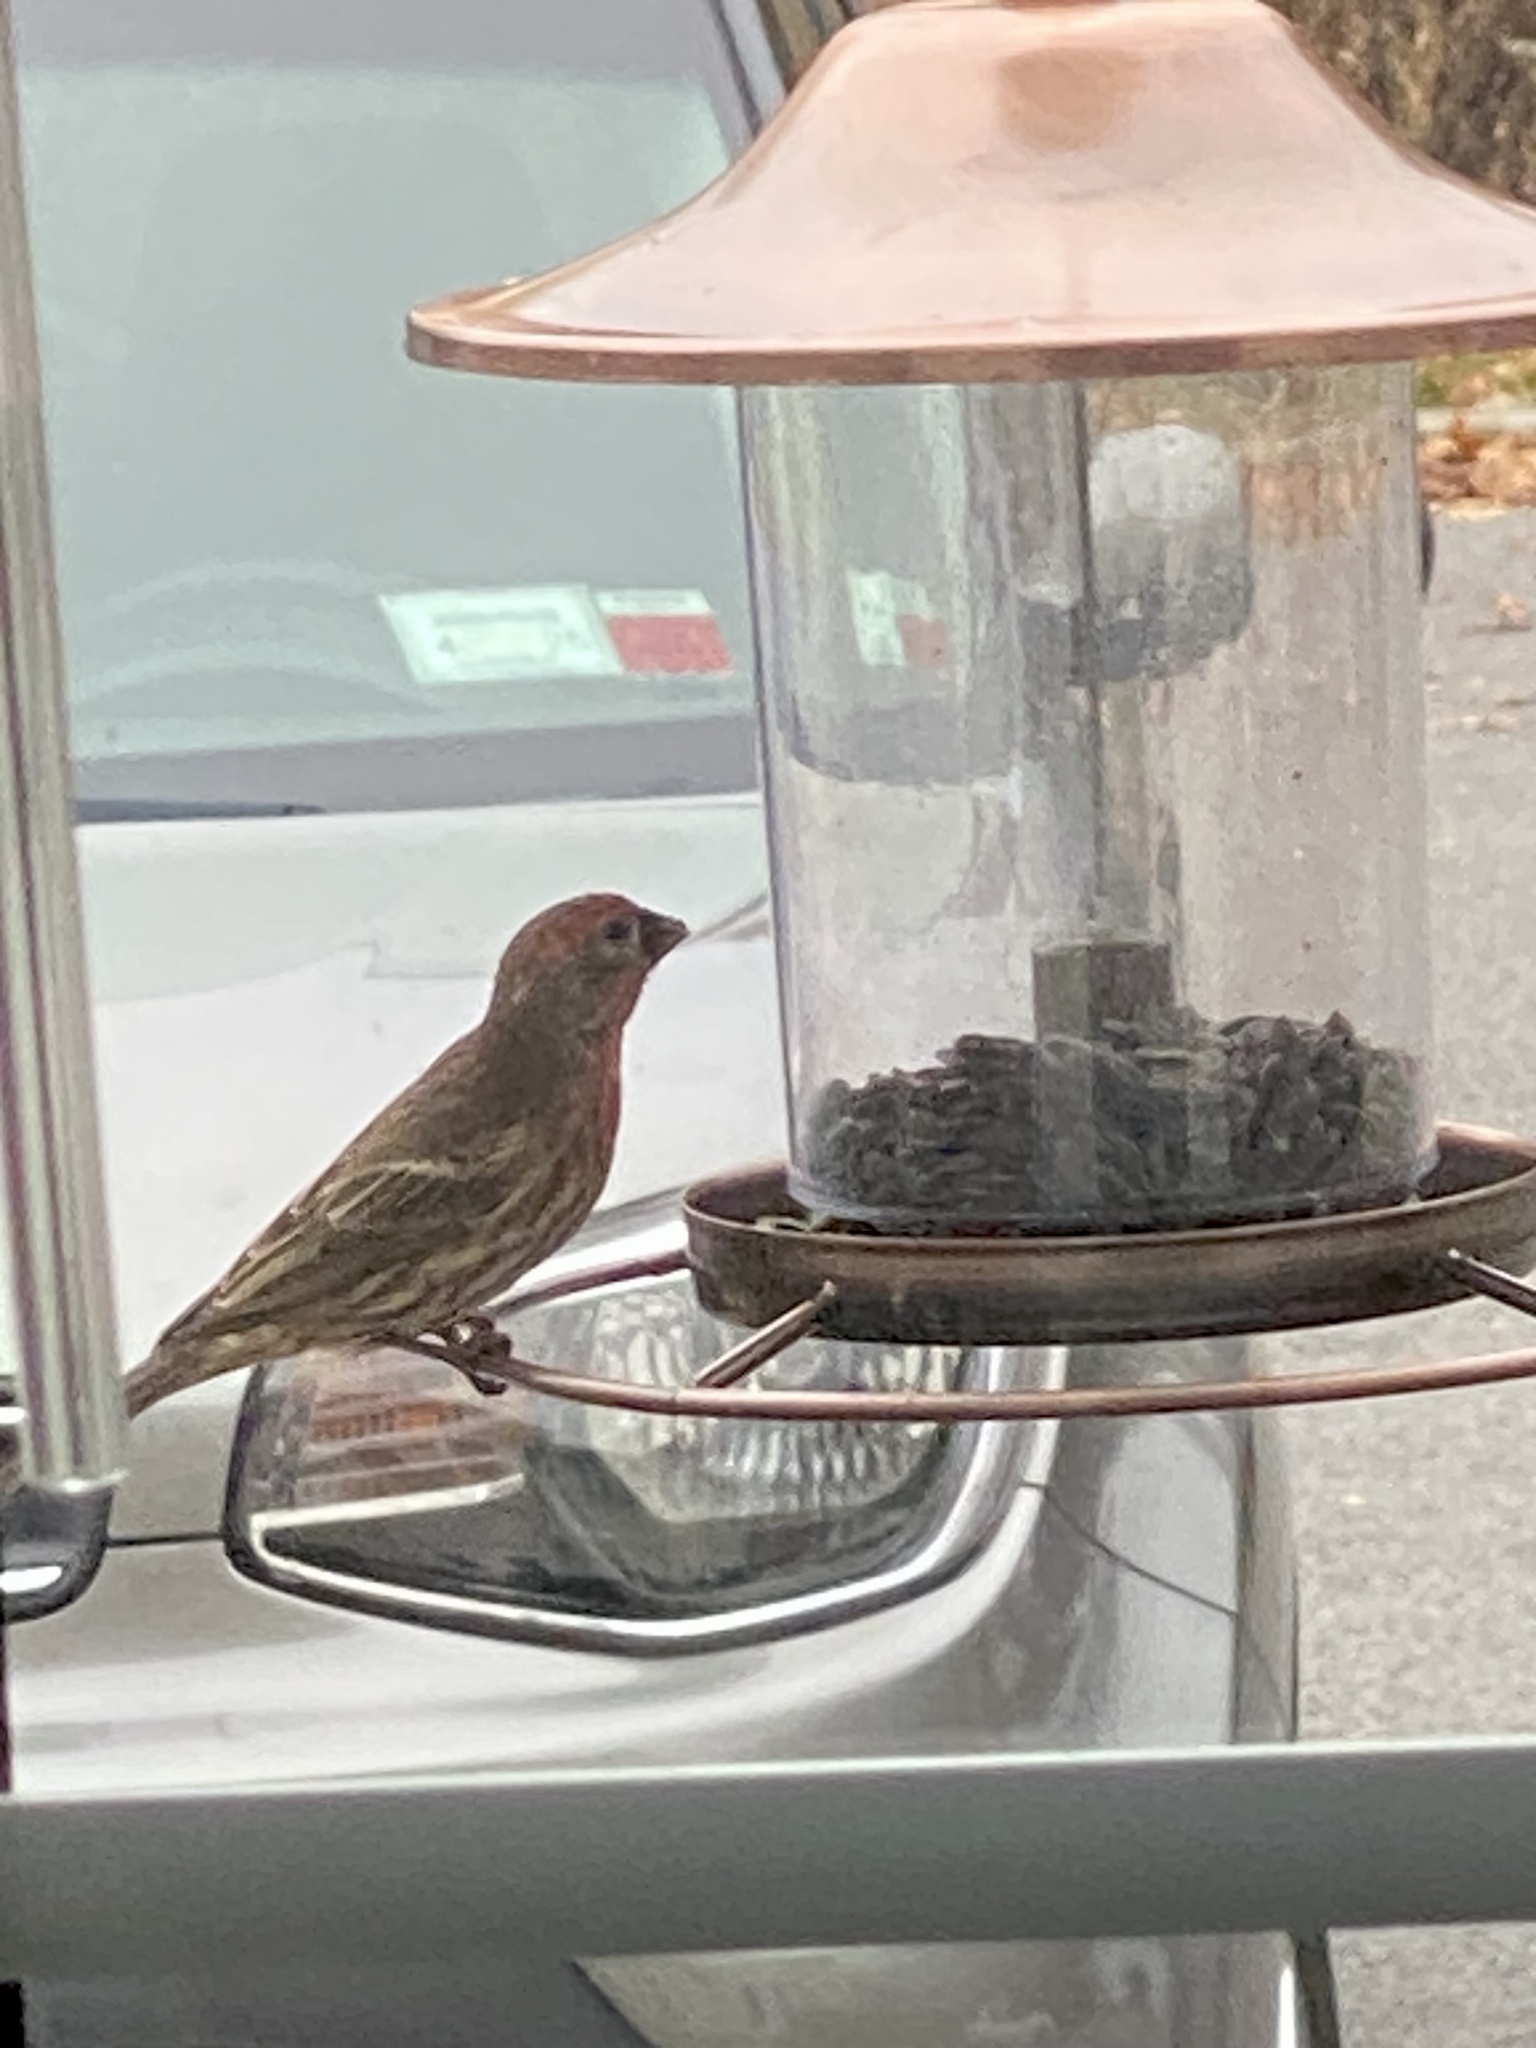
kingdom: Animalia
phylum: Chordata
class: Aves
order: Passeriformes
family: Fringillidae
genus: Haemorhous
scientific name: Haemorhous mexicanus
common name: House finch
